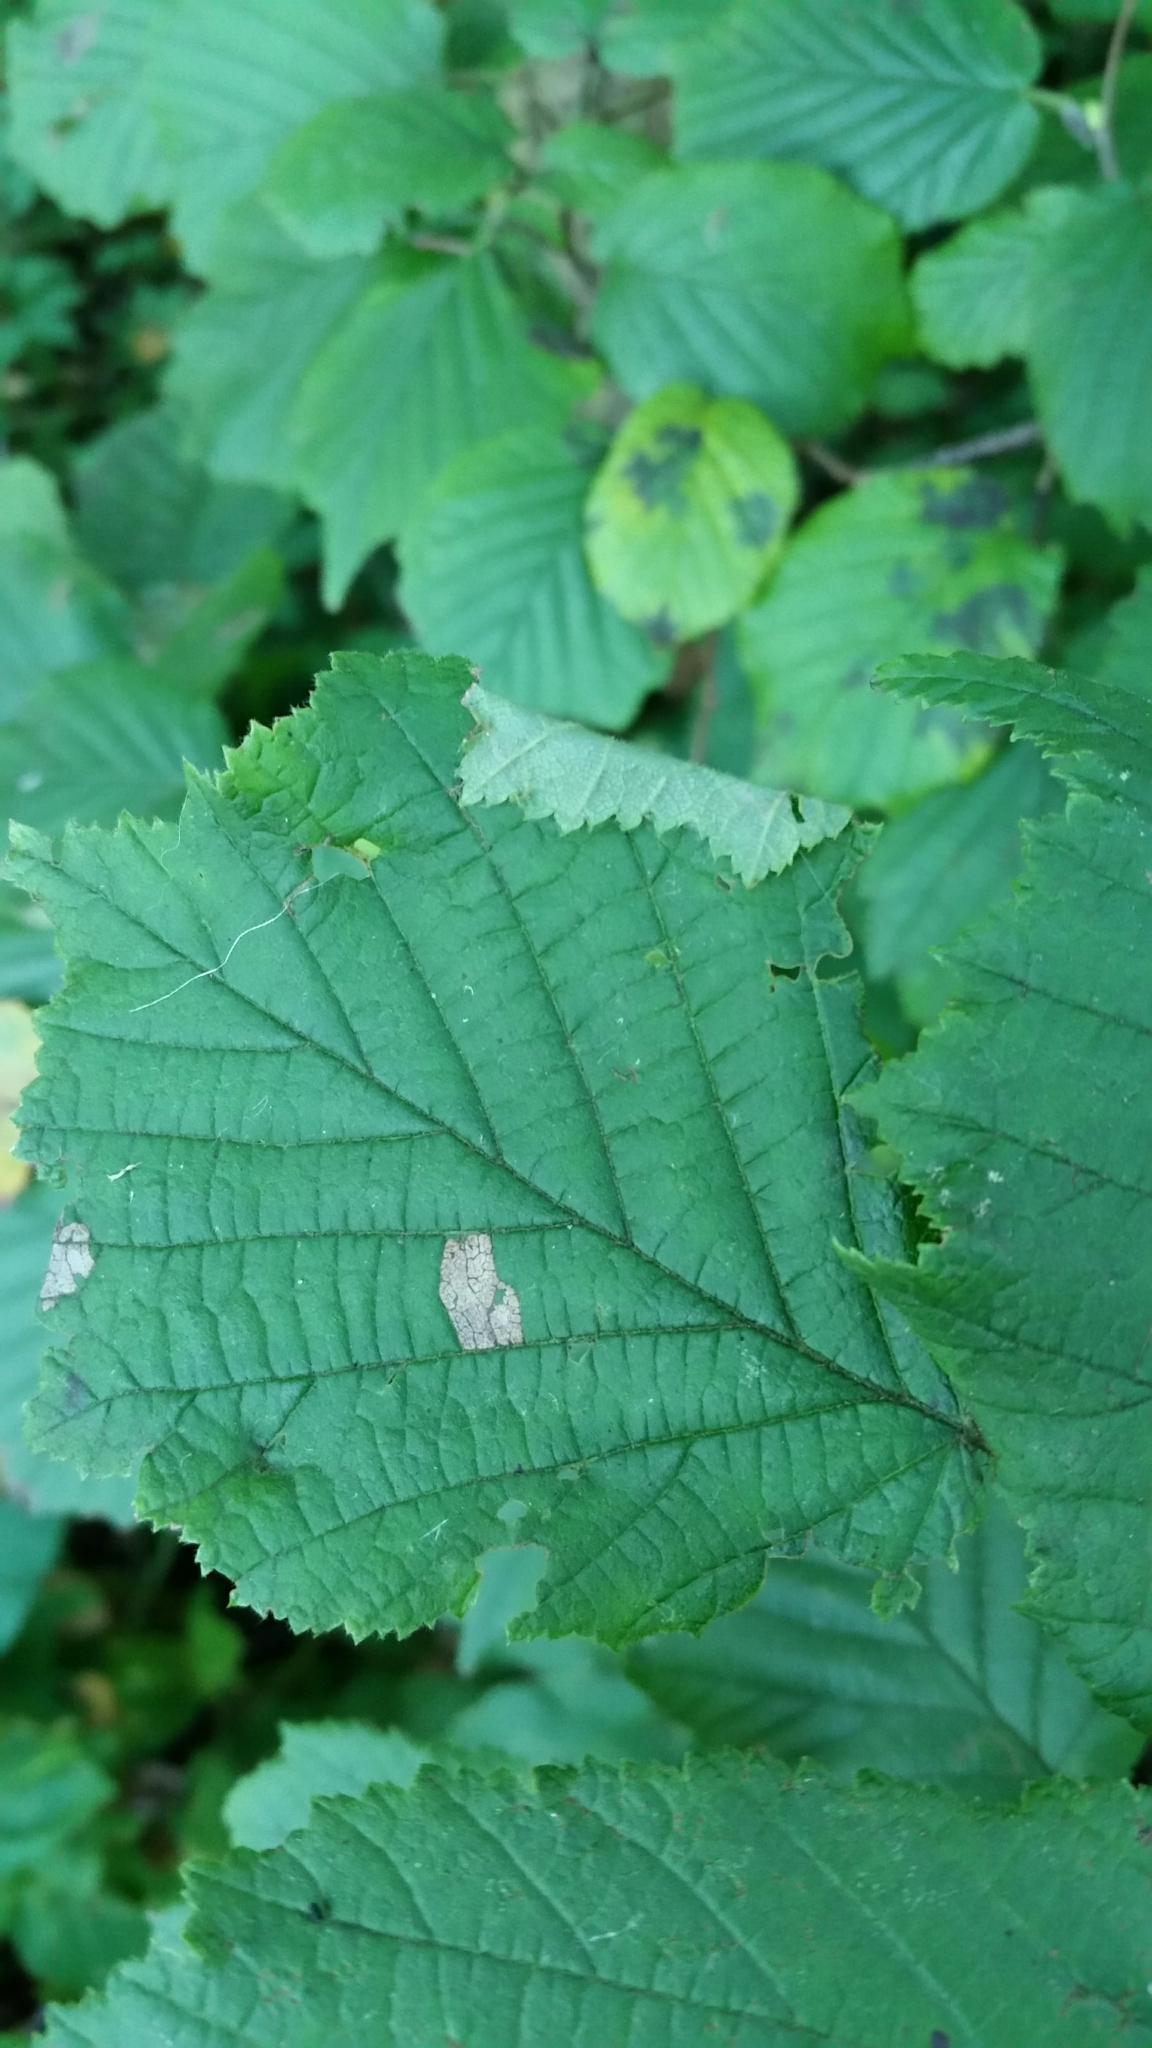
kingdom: Animalia
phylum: Arthropoda
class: Insecta
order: Lepidoptera
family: Gracillariidae
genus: Parornix
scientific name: Parornix devoniella
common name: Hazel slender
